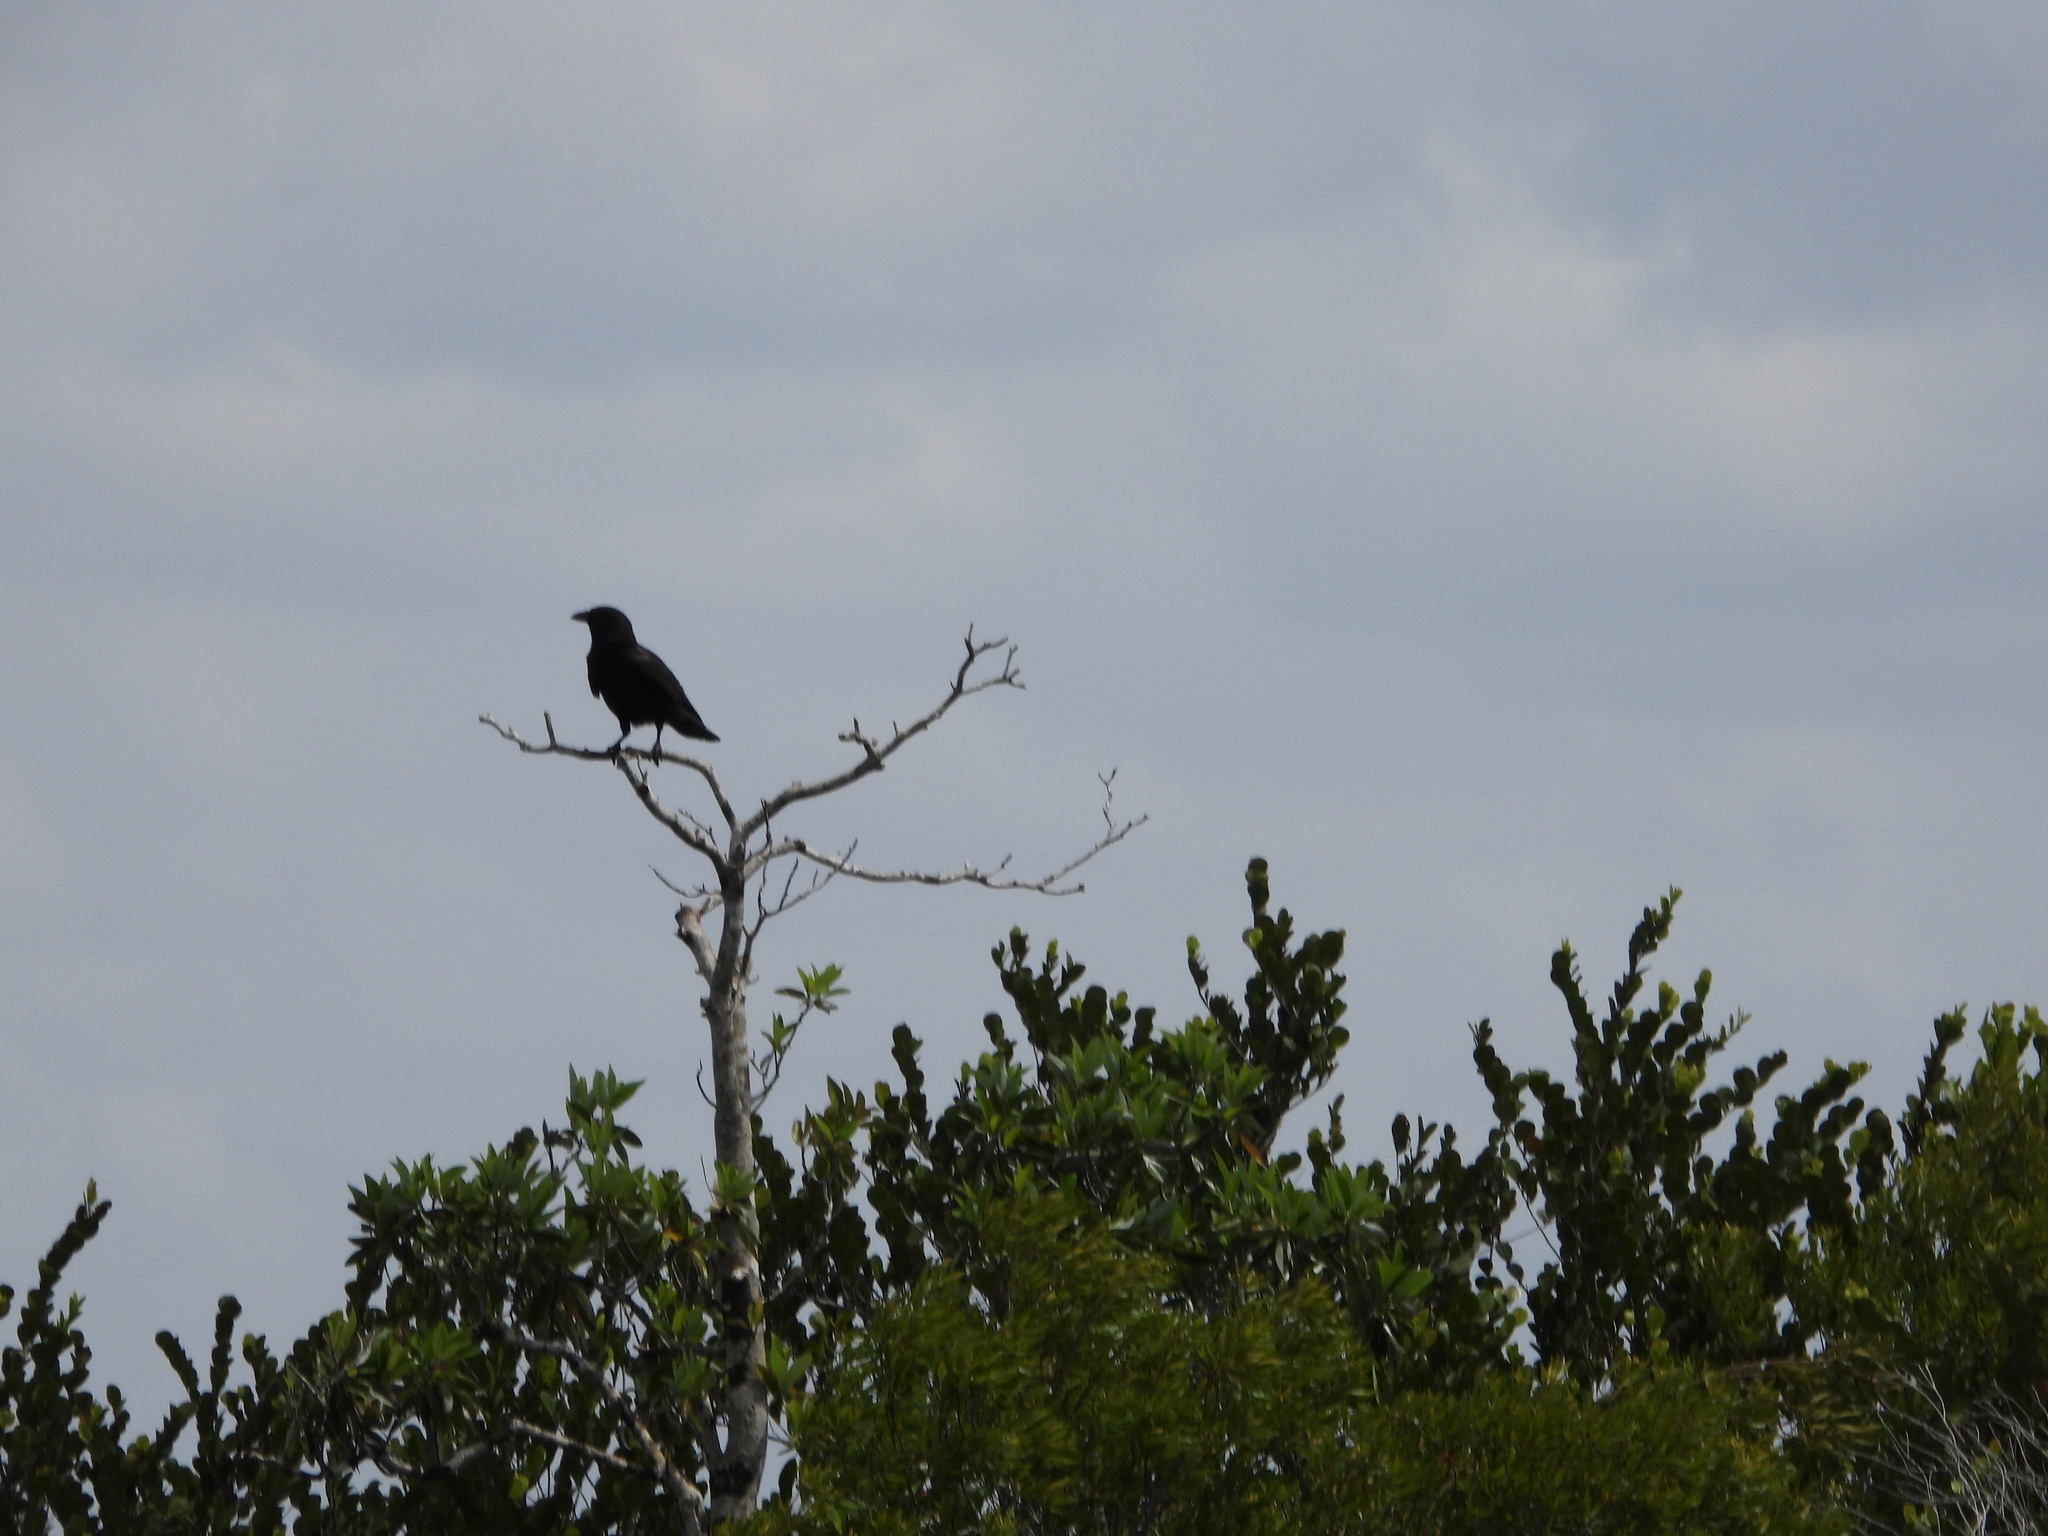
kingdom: Animalia
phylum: Chordata
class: Aves
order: Passeriformes
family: Corvidae
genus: Corvus
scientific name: Corvus brachyrhynchos
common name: American crow
